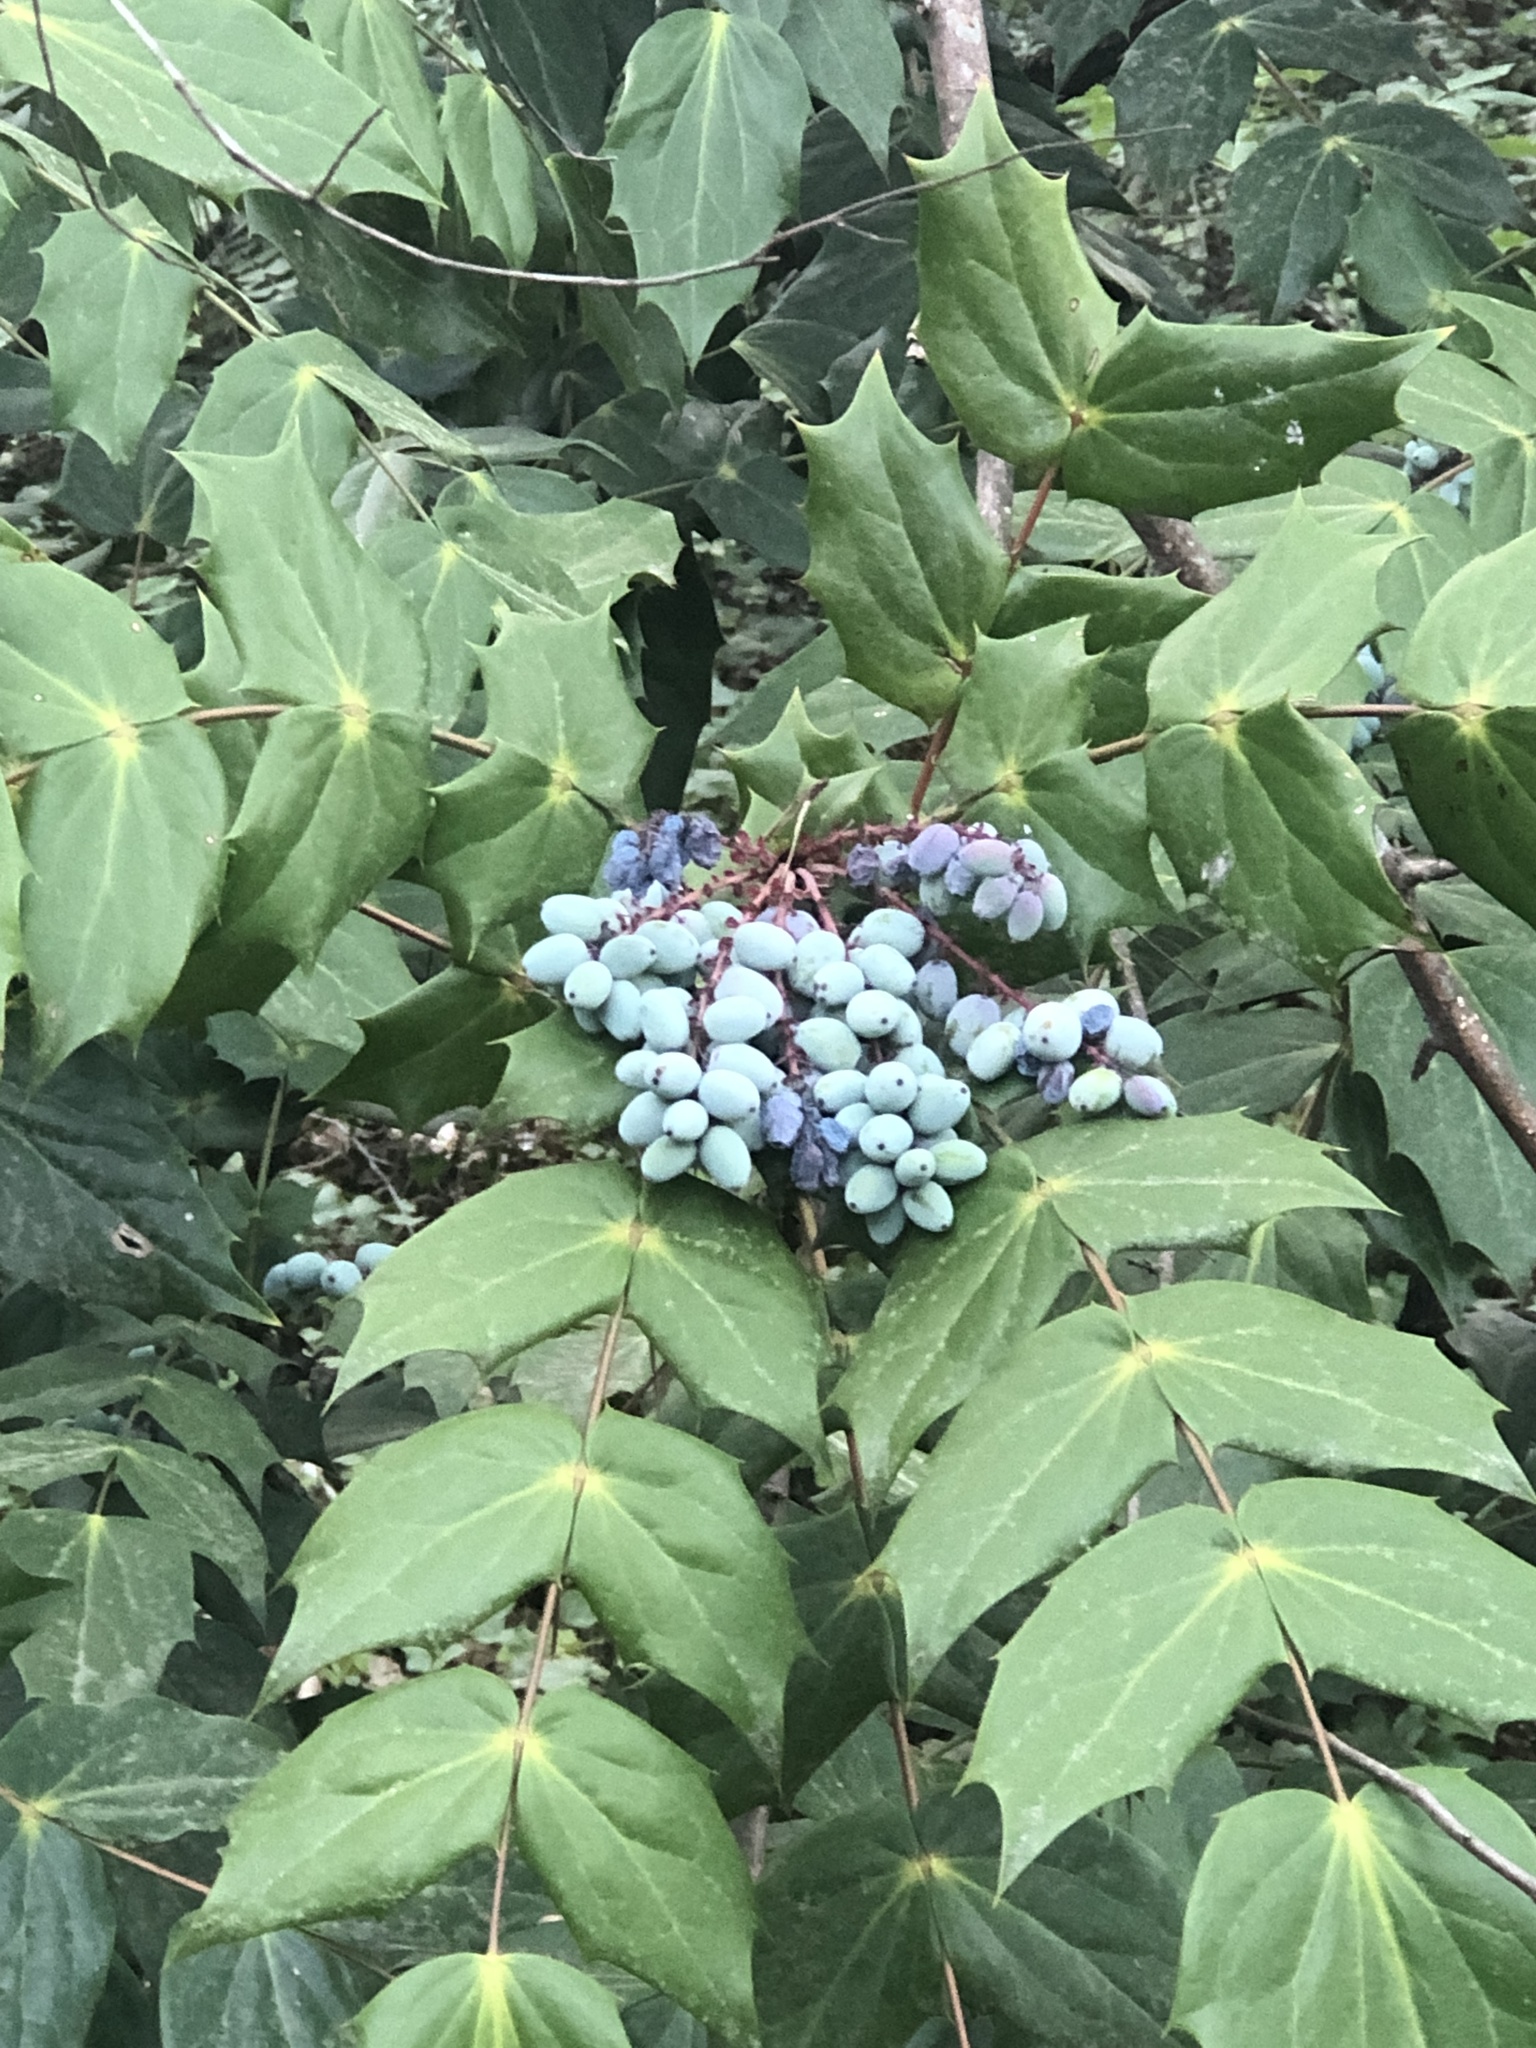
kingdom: Plantae
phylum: Tracheophyta
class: Magnoliopsida
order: Ranunculales
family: Berberidaceae
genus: Mahonia
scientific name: Mahonia bealei
